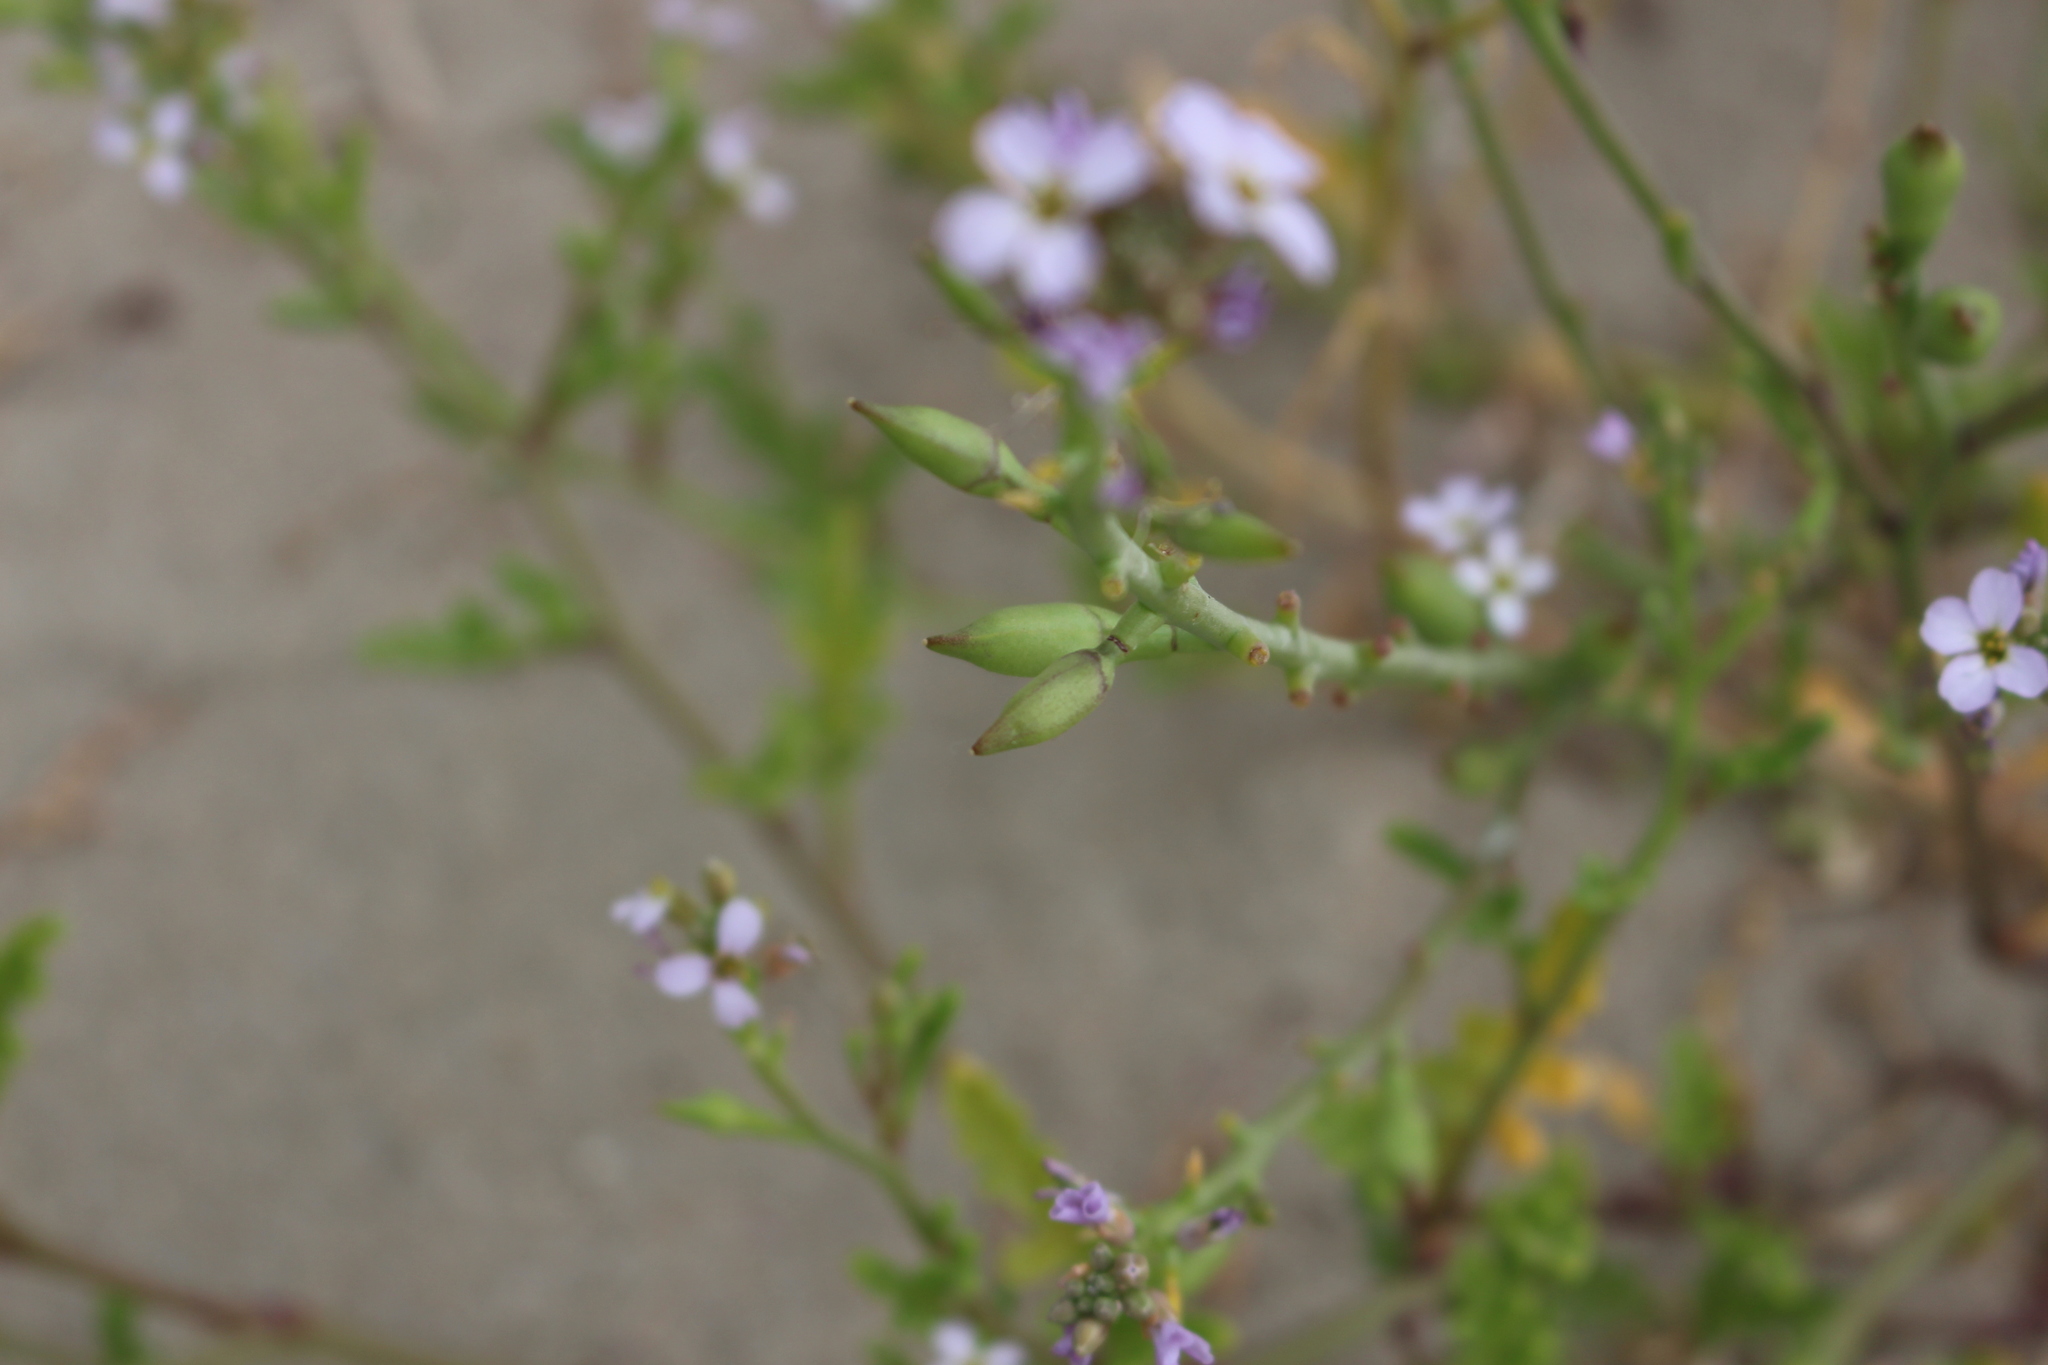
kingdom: Plantae
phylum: Tracheophyta
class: Magnoliopsida
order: Brassicales
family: Brassicaceae
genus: Cakile
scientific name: Cakile edentula
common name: American sea rocket
